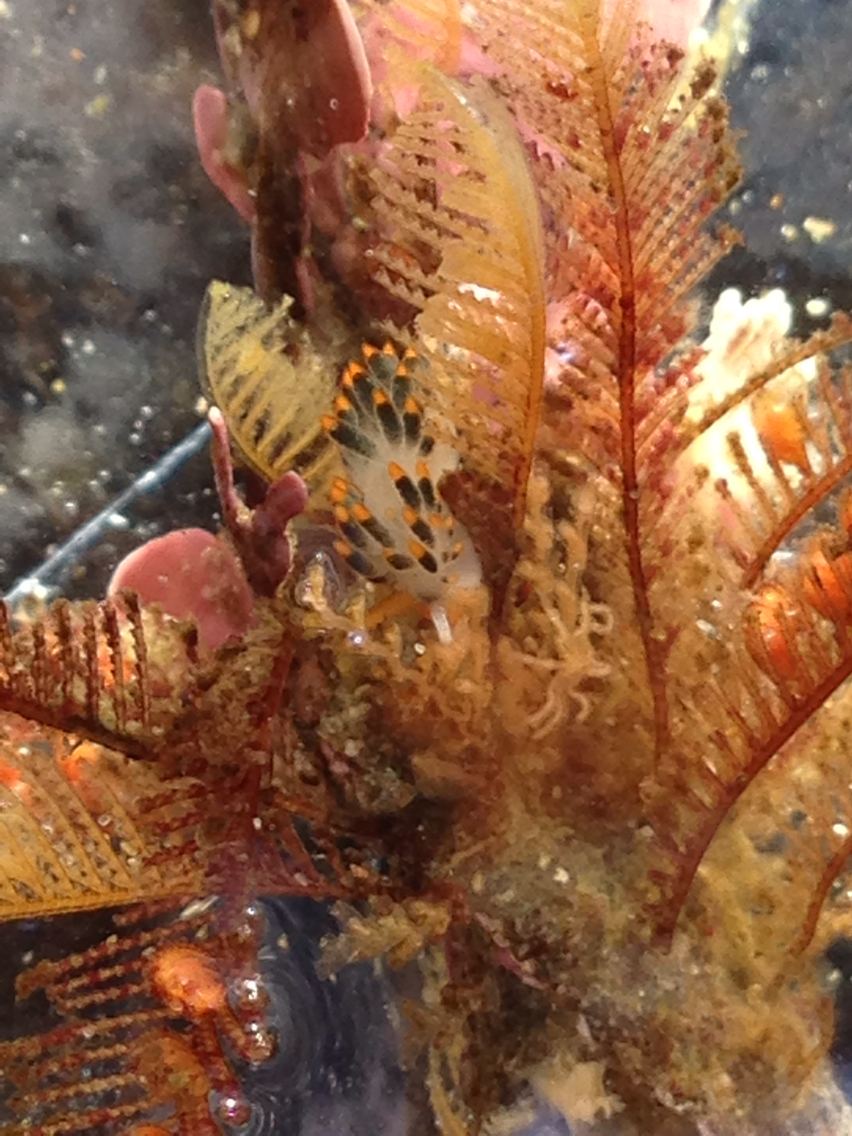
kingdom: Animalia
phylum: Mollusca
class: Gastropoda
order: Nudibranchia
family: Trinchesiidae
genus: Diaphoreolis
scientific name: Diaphoreolis lagunae
